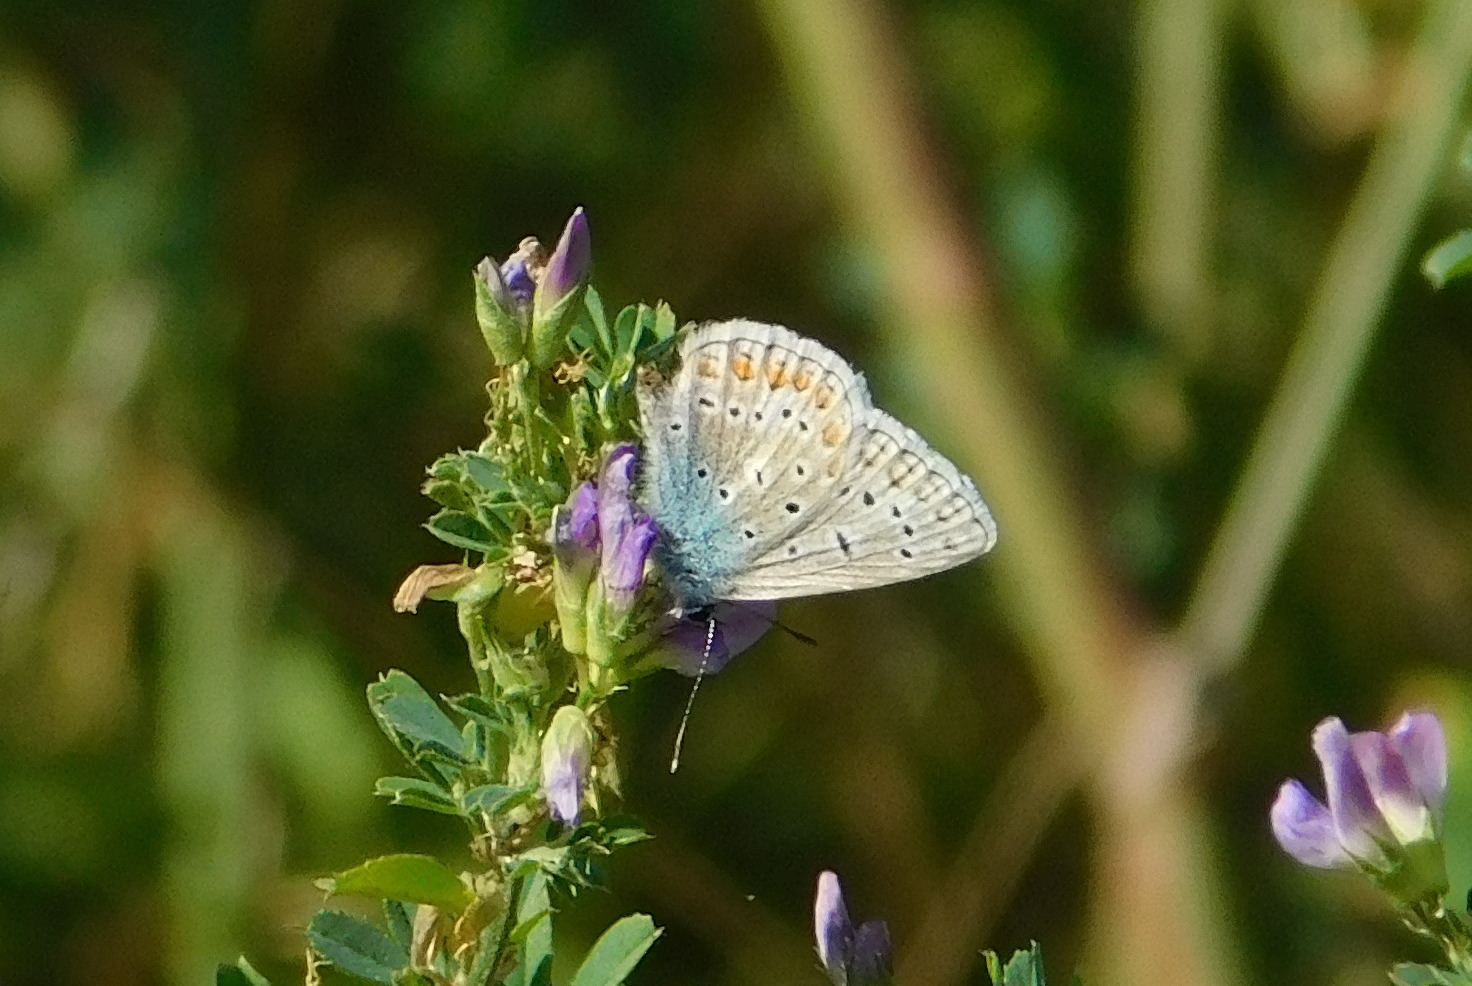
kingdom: Animalia
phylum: Arthropoda
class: Insecta
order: Lepidoptera
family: Lycaenidae
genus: Polyommatus
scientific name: Polyommatus icarus
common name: Common blue
